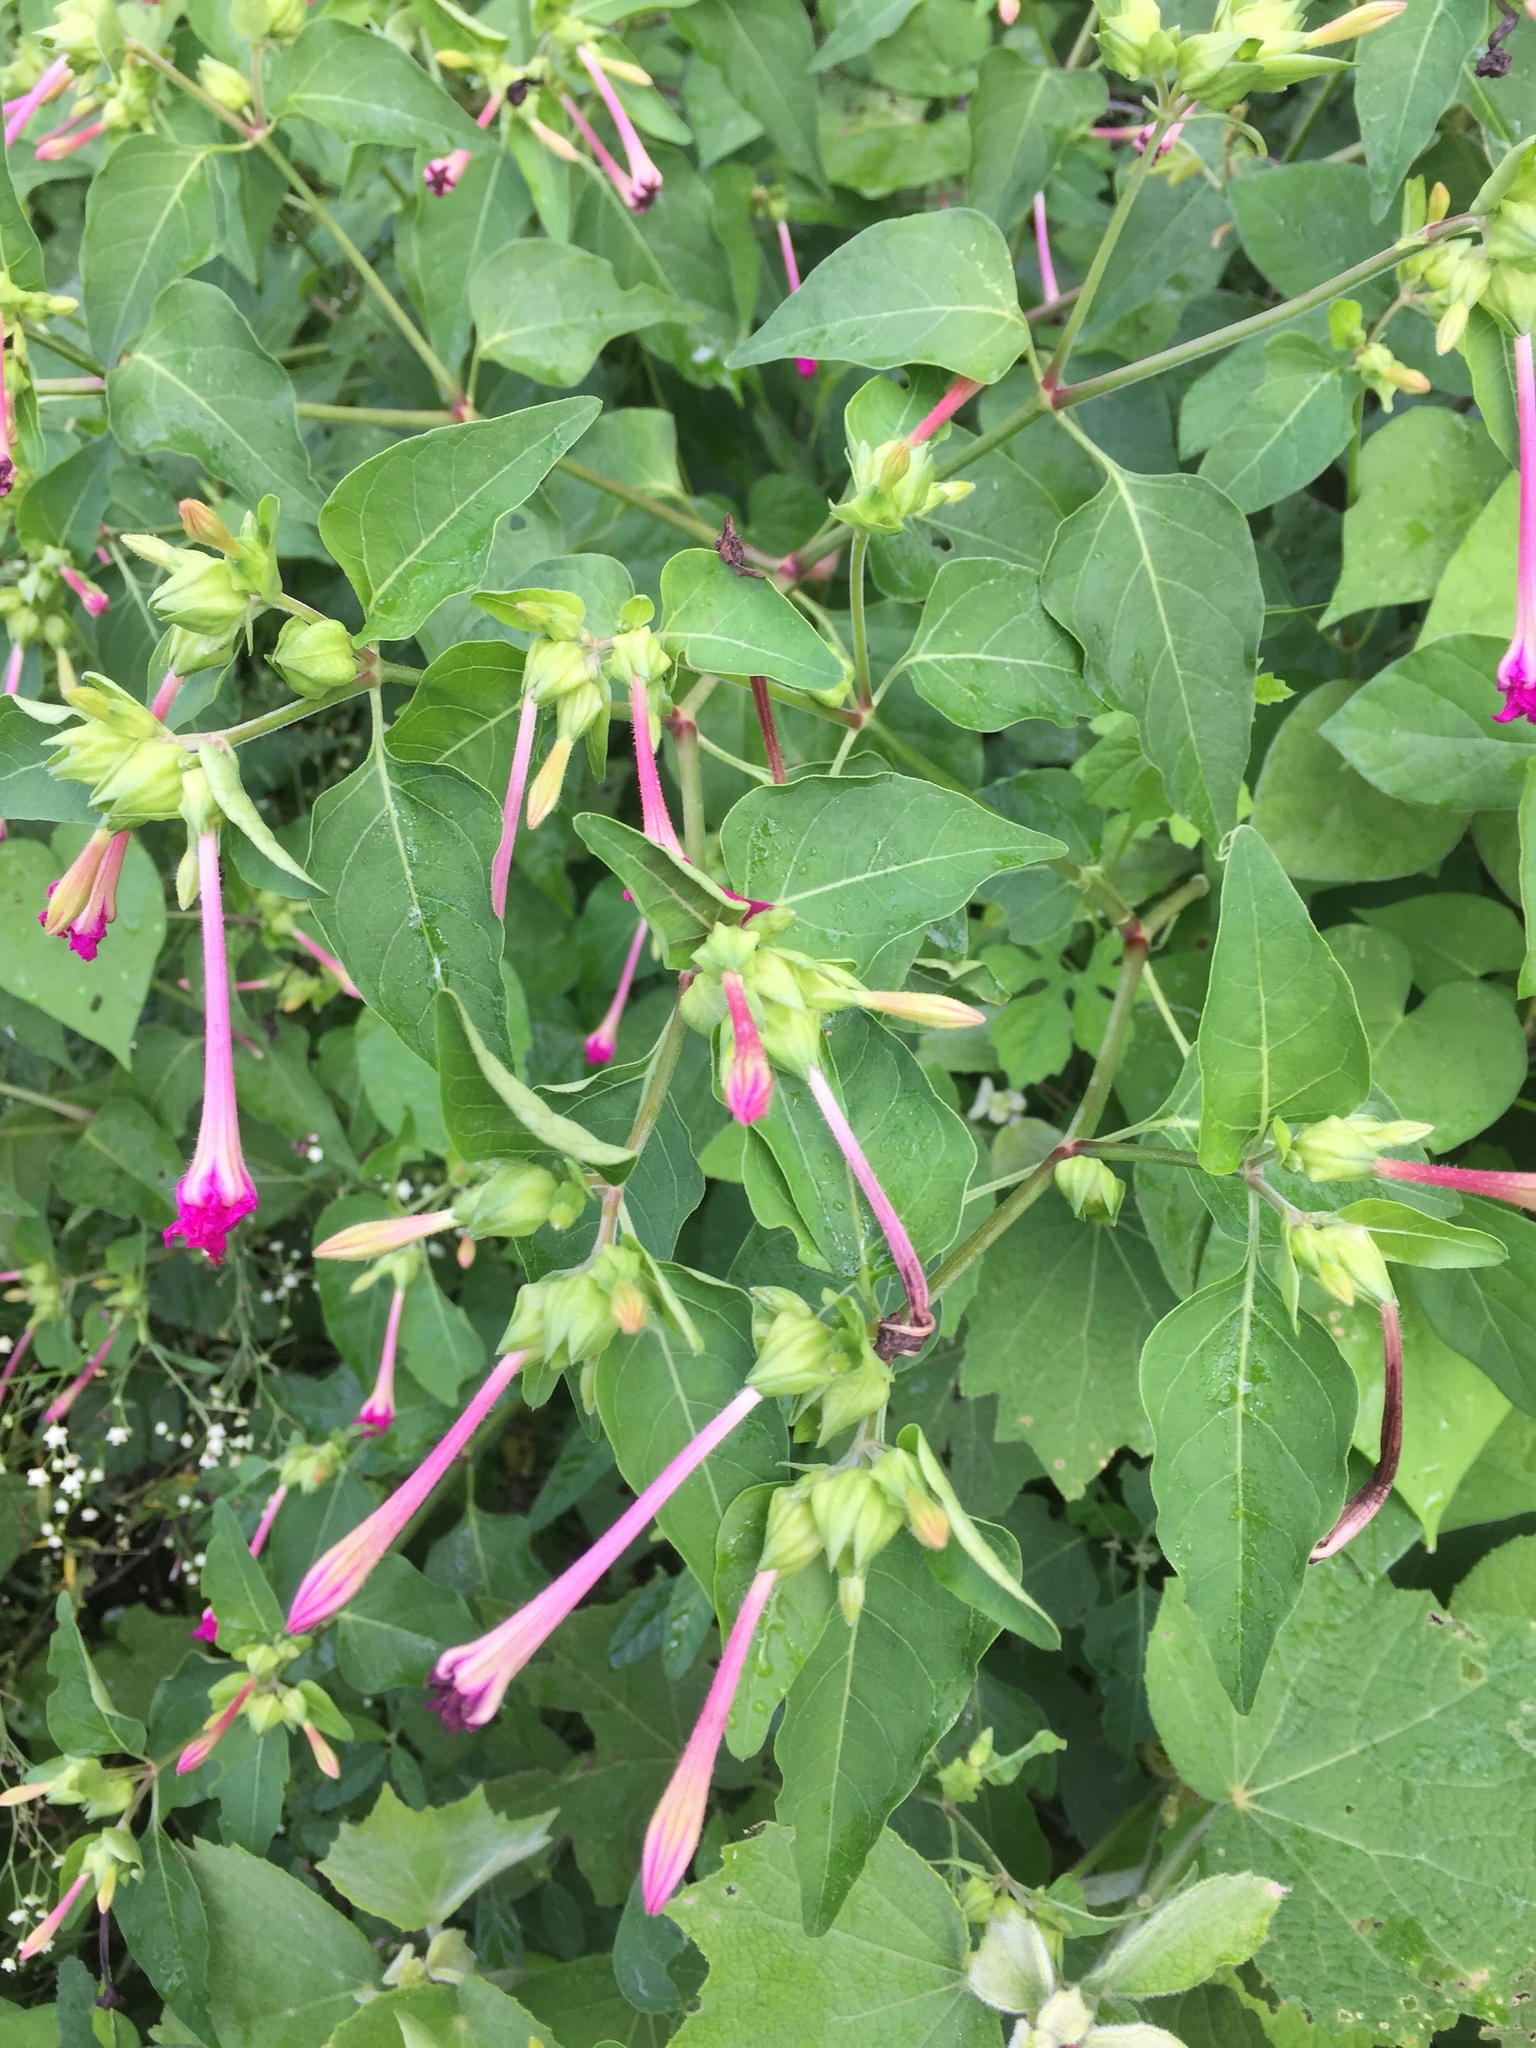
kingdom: Plantae
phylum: Tracheophyta
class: Magnoliopsida
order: Caryophyllales
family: Nyctaginaceae
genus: Mirabilis
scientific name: Mirabilis jalapa
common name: Marvel-of-peru
